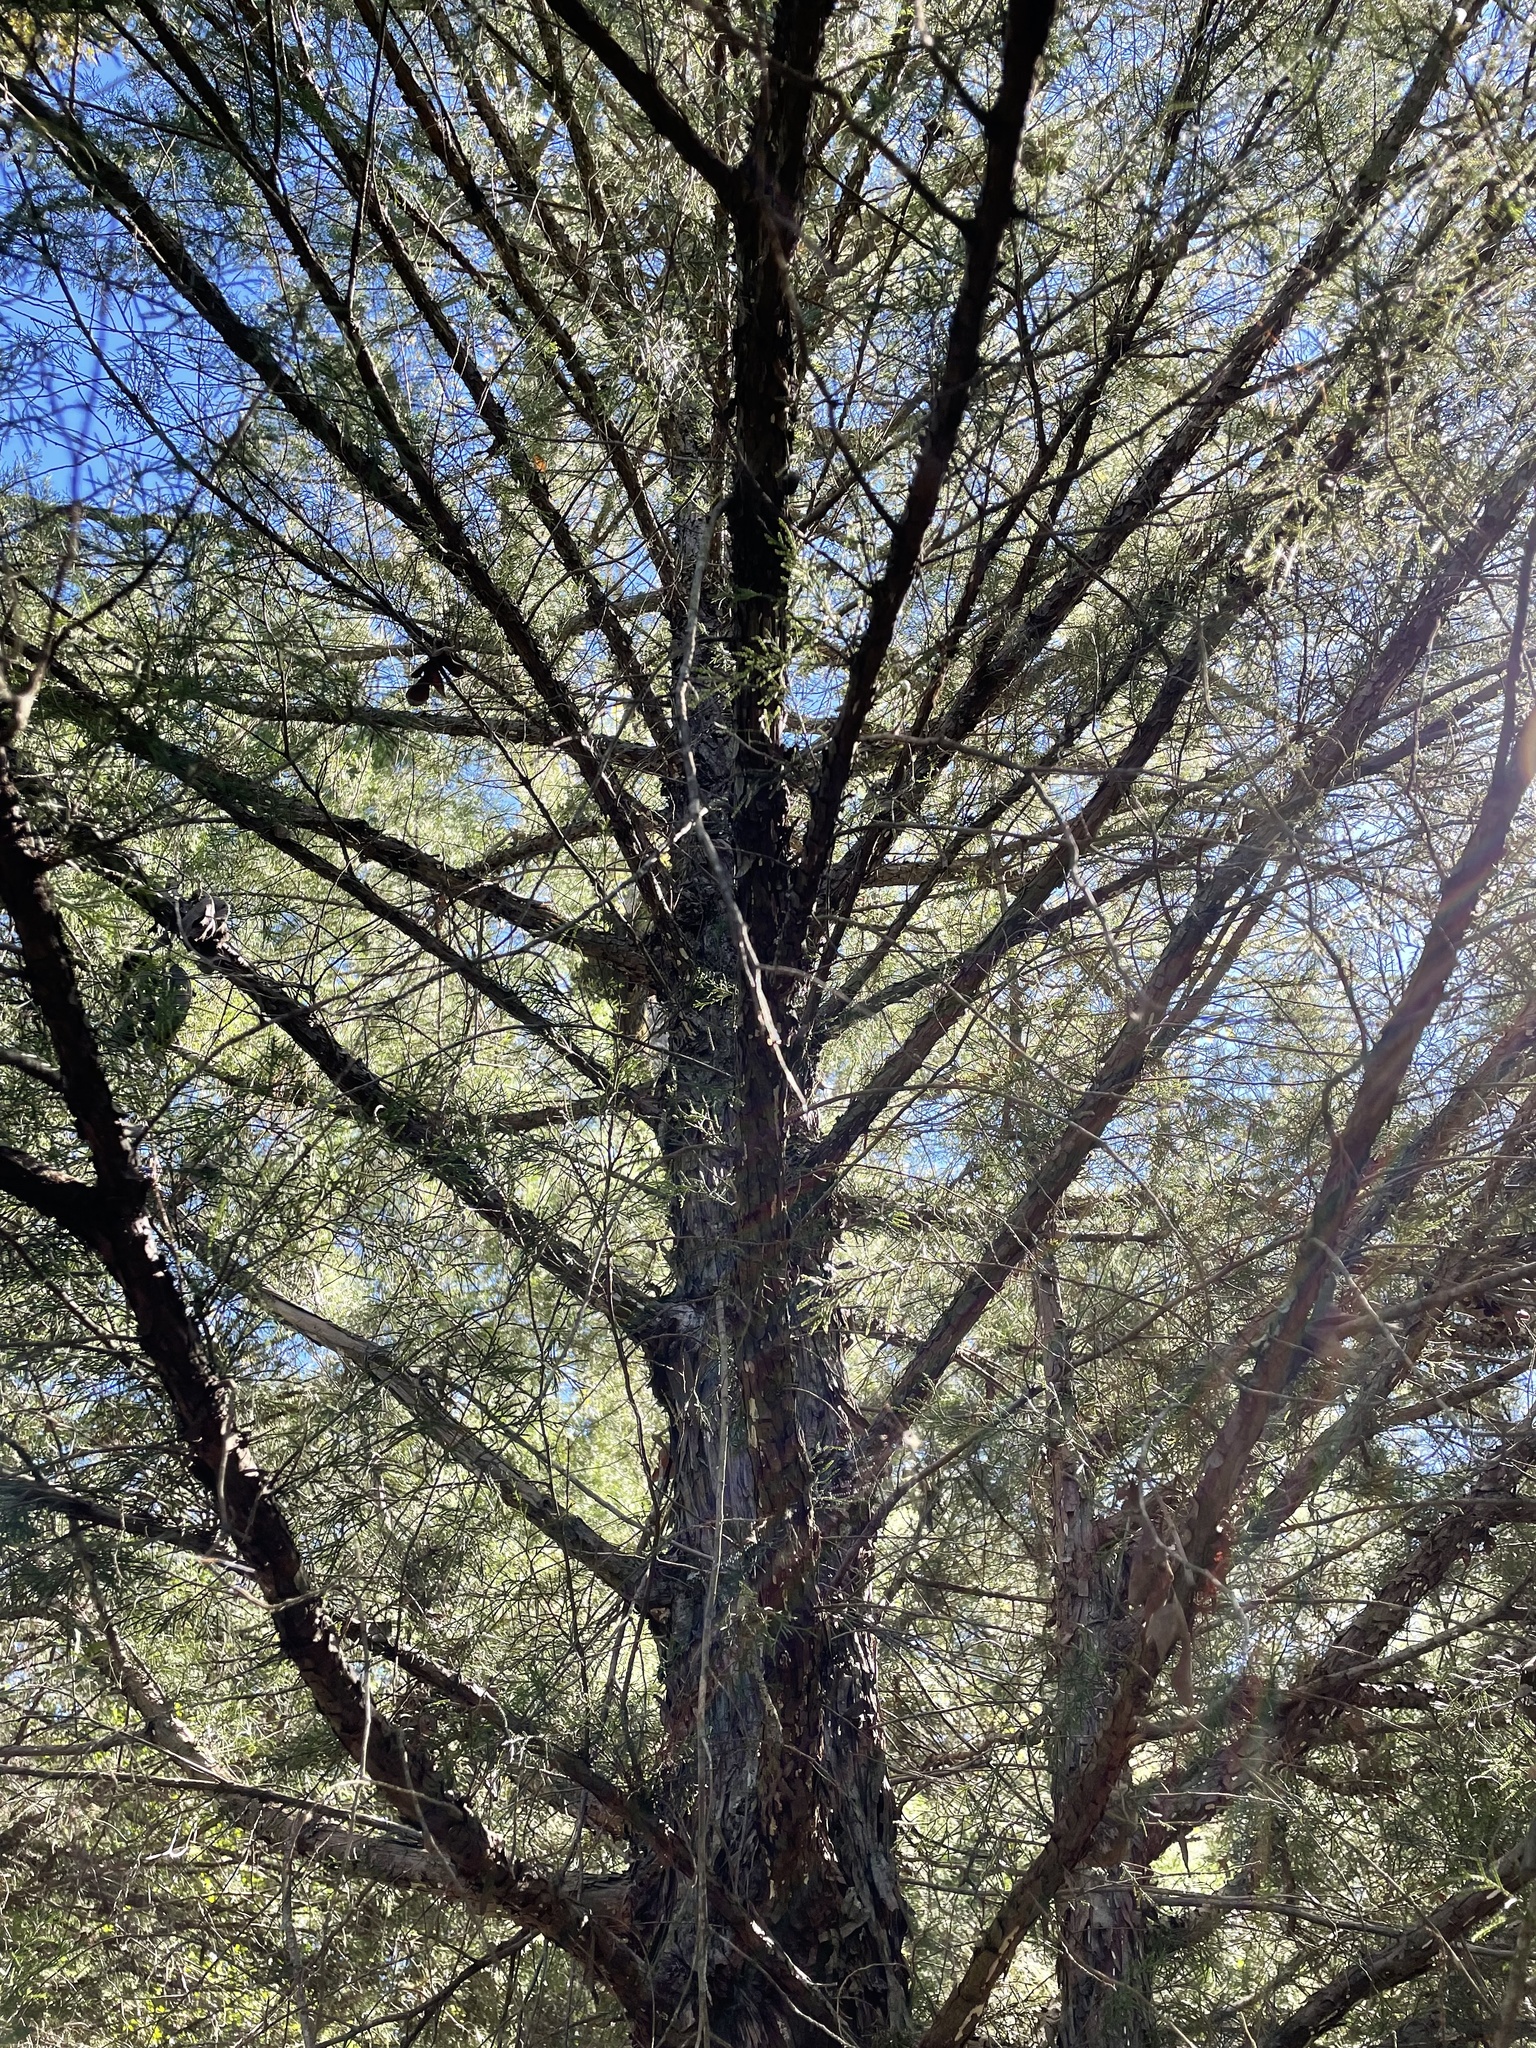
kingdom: Plantae
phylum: Tracheophyta
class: Pinopsida
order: Pinales
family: Cupressaceae
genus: Juniperus
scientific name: Juniperus virginiana
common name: Red juniper
